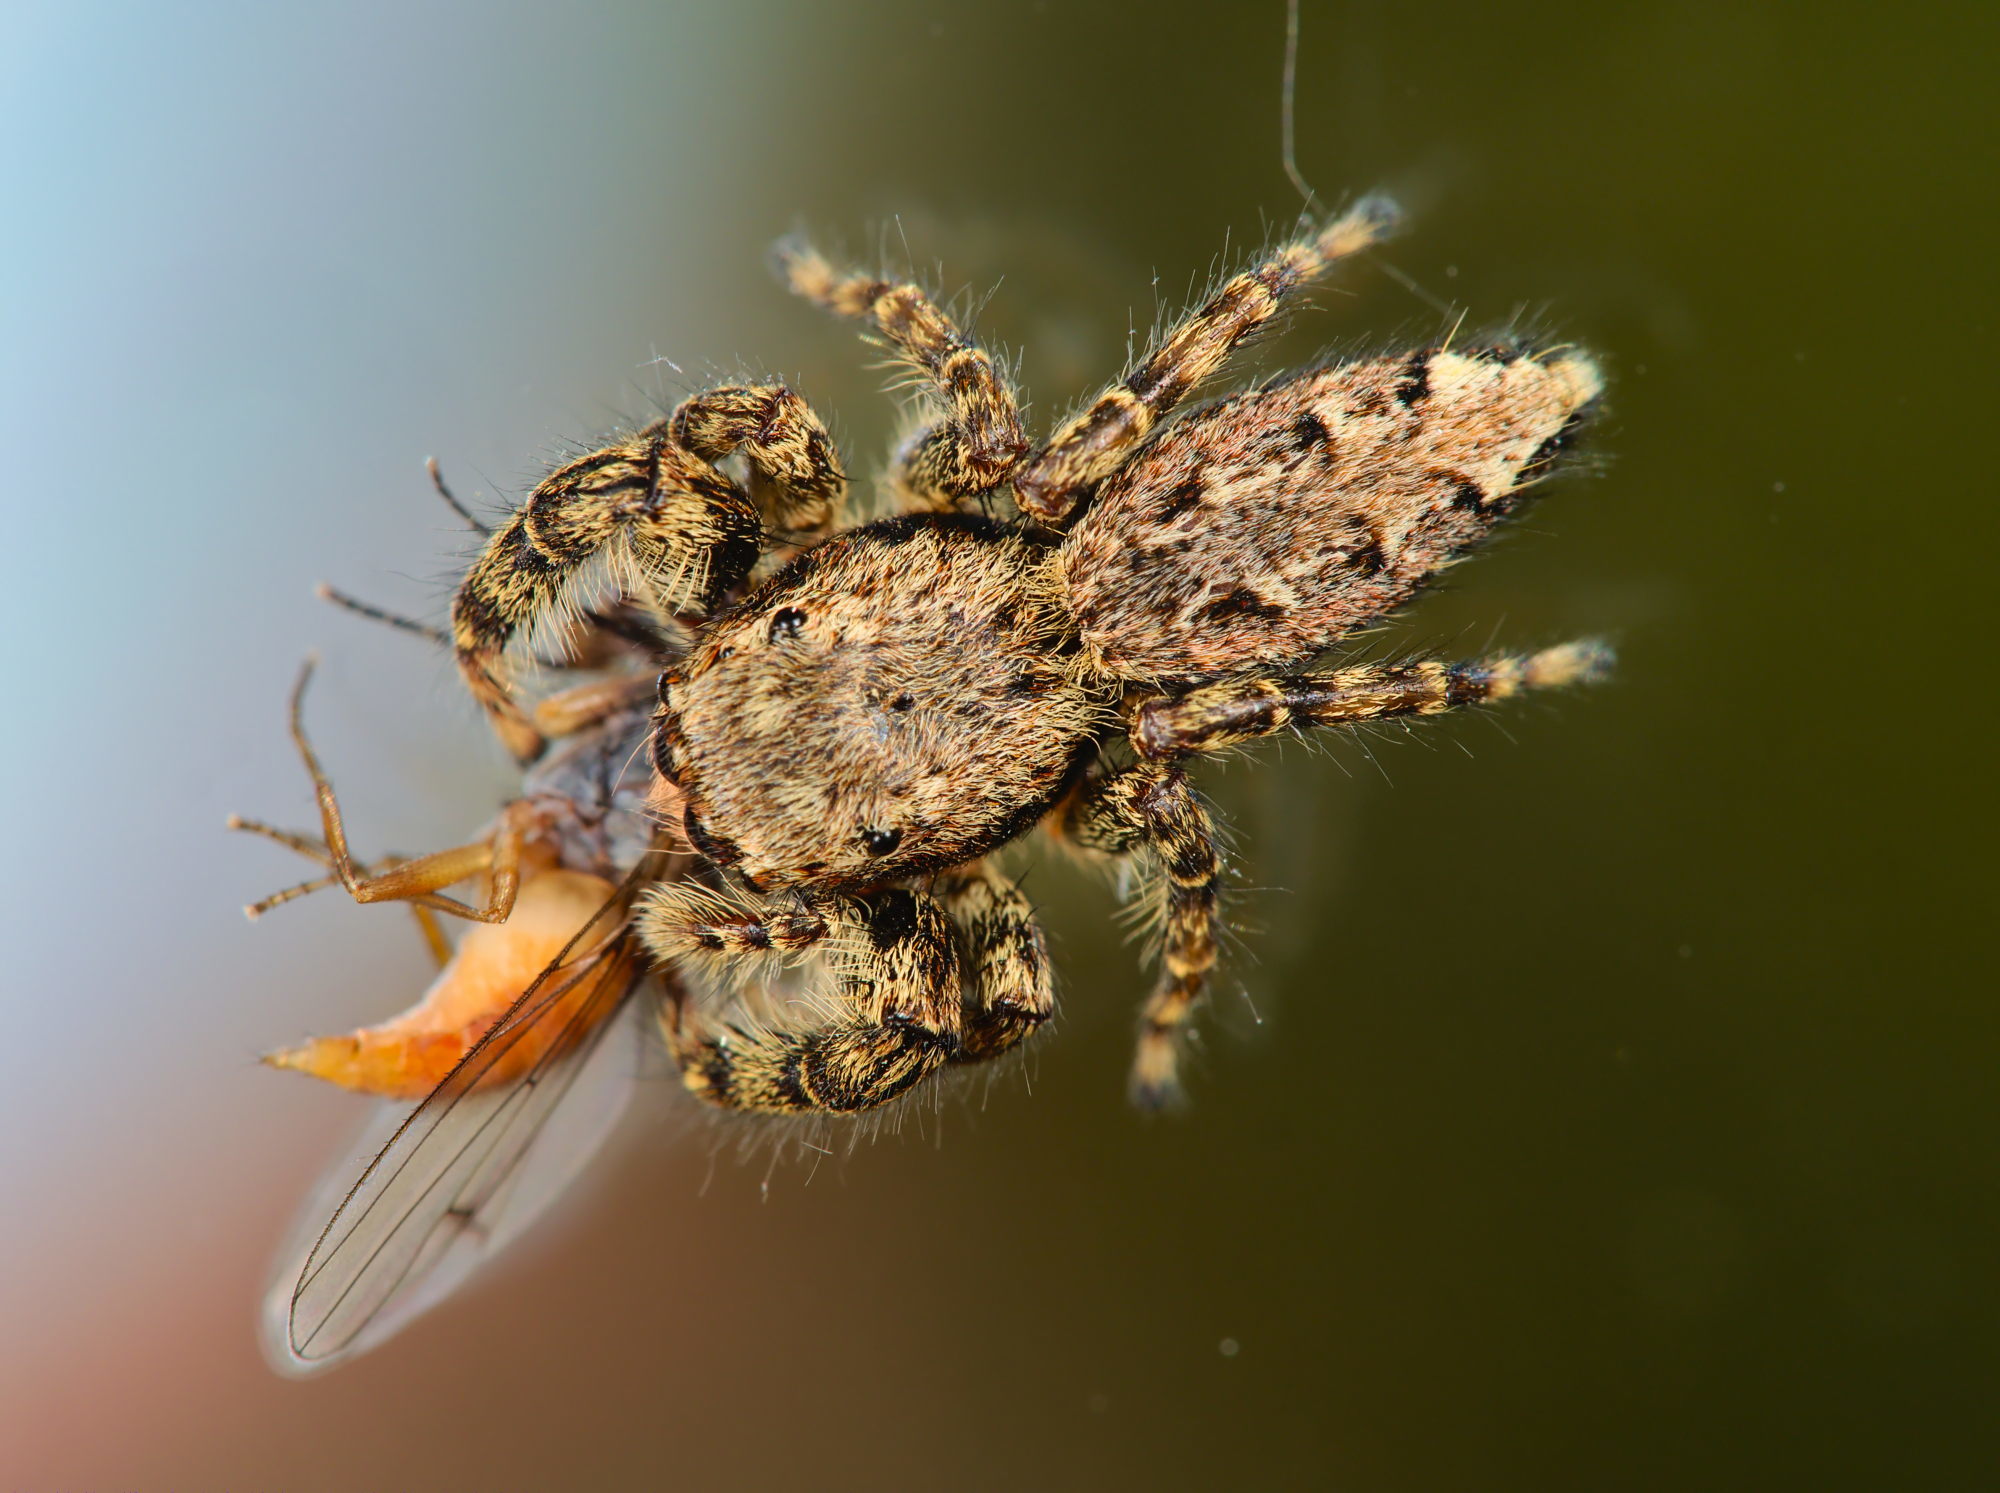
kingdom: Animalia
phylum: Arthropoda
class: Arachnida
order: Araneae
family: Salticidae
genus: Marpissa
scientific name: Marpissa muscosa
